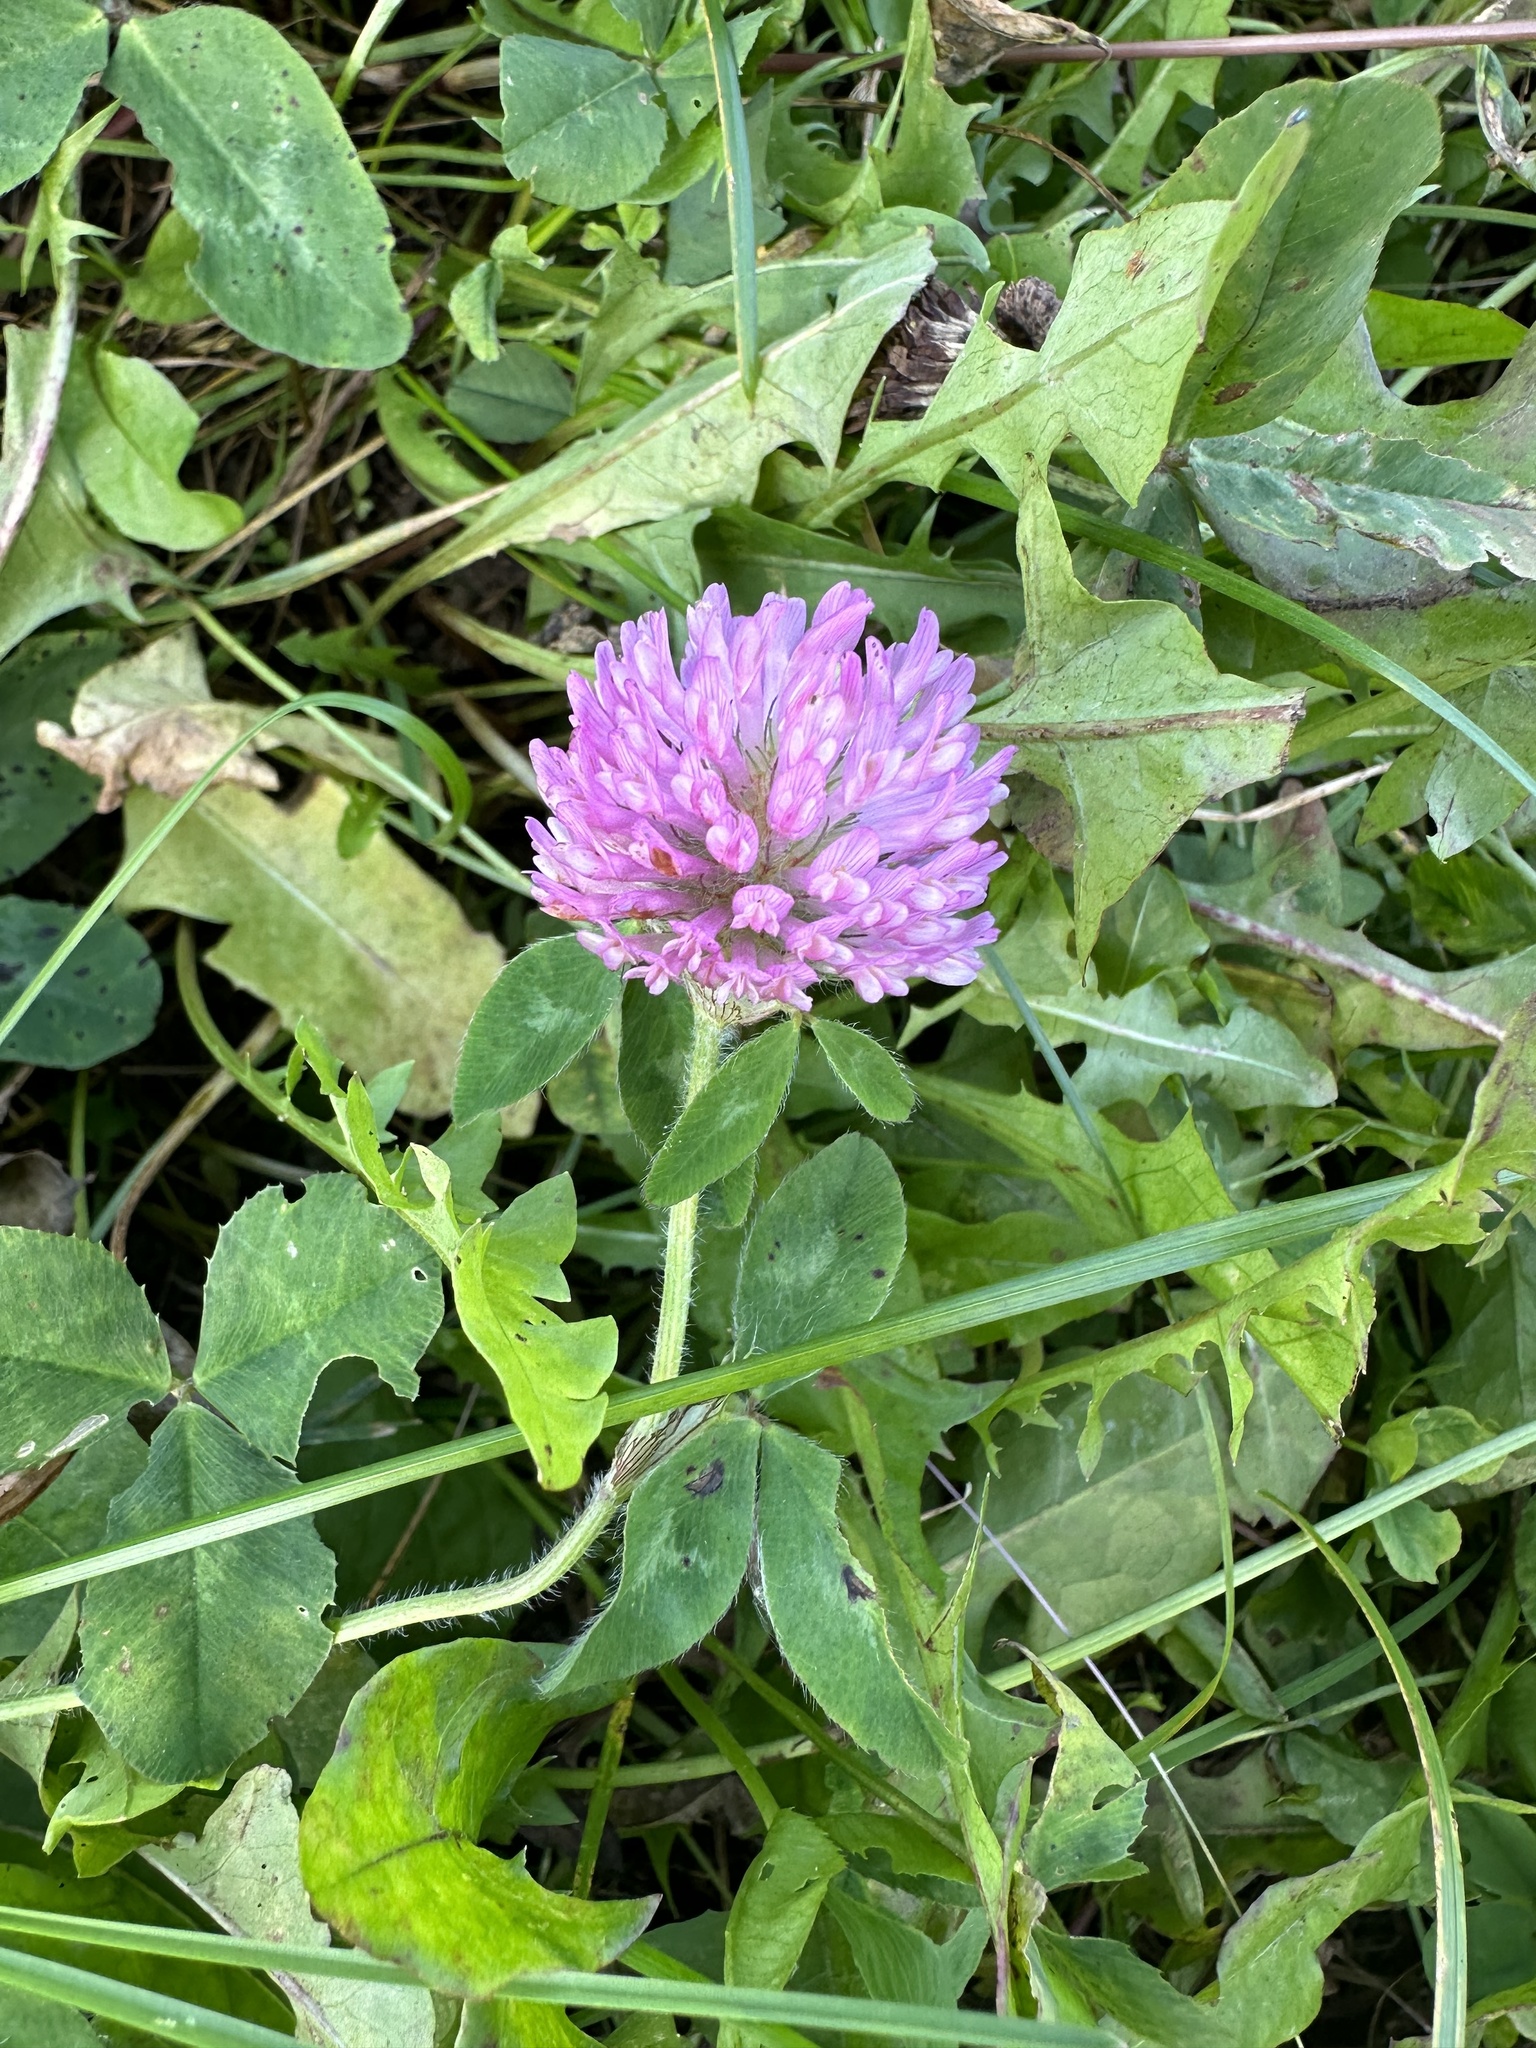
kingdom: Plantae
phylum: Tracheophyta
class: Magnoliopsida
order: Fabales
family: Fabaceae
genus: Trifolium
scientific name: Trifolium pratense
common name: Red clover
